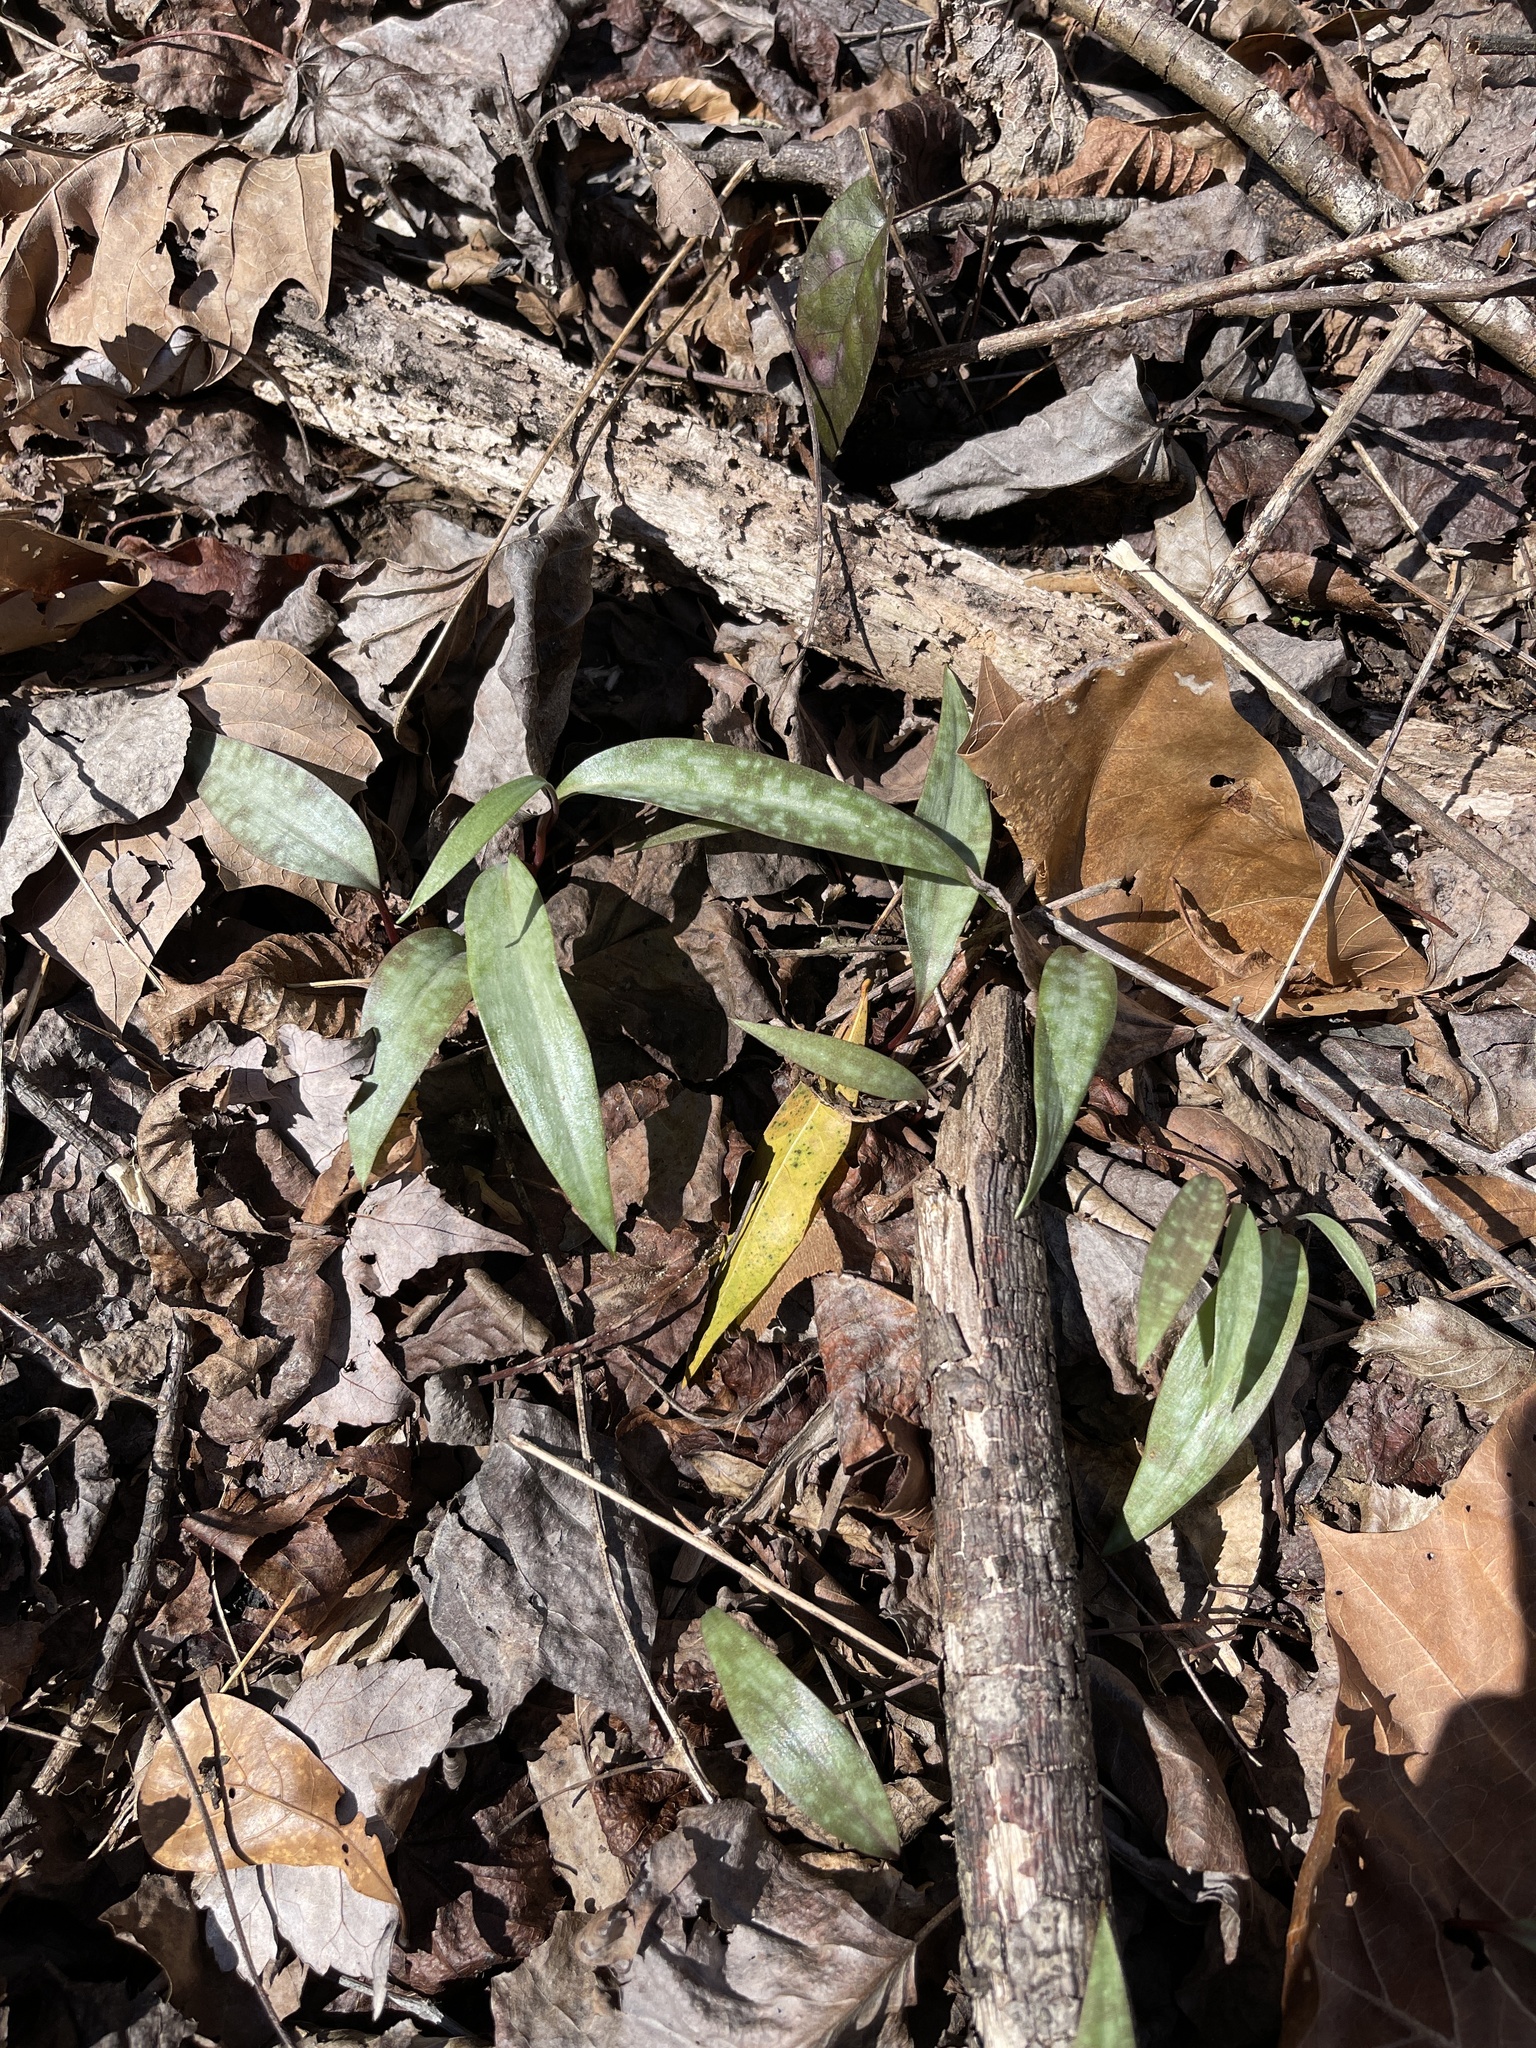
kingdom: Plantae
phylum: Tracheophyta
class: Liliopsida
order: Liliales
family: Liliaceae
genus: Erythronium
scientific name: Erythronium umbilicatum
